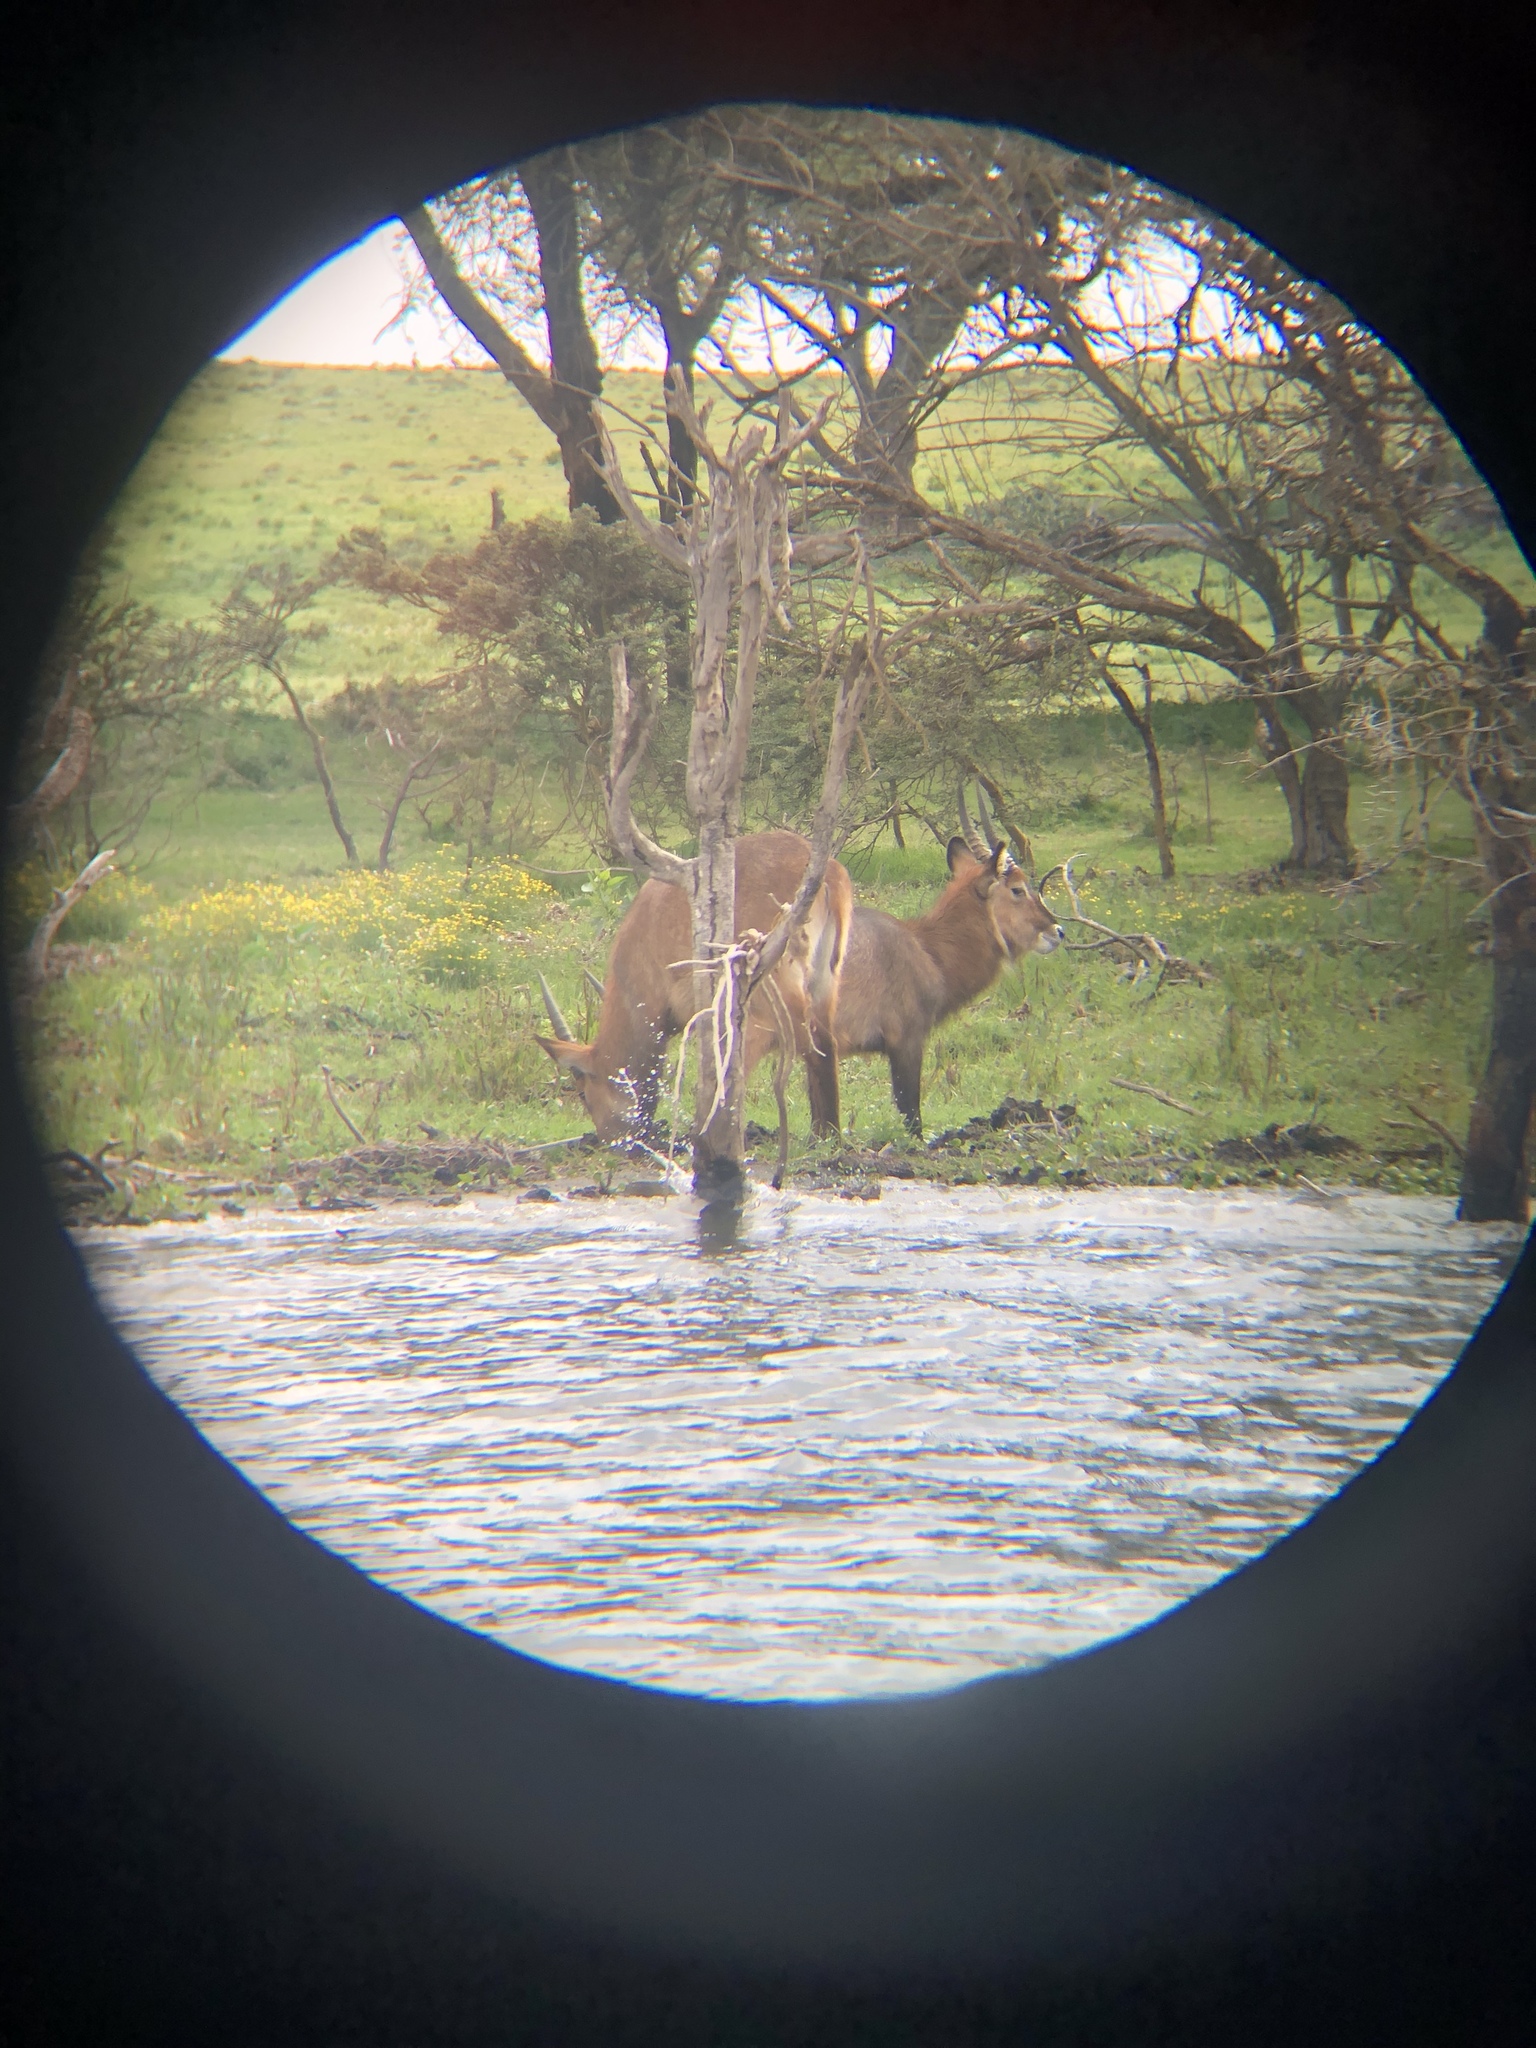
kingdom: Animalia
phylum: Chordata
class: Mammalia
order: Artiodactyla
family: Bovidae
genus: Kobus
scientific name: Kobus ellipsiprymnus
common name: Waterbuck
